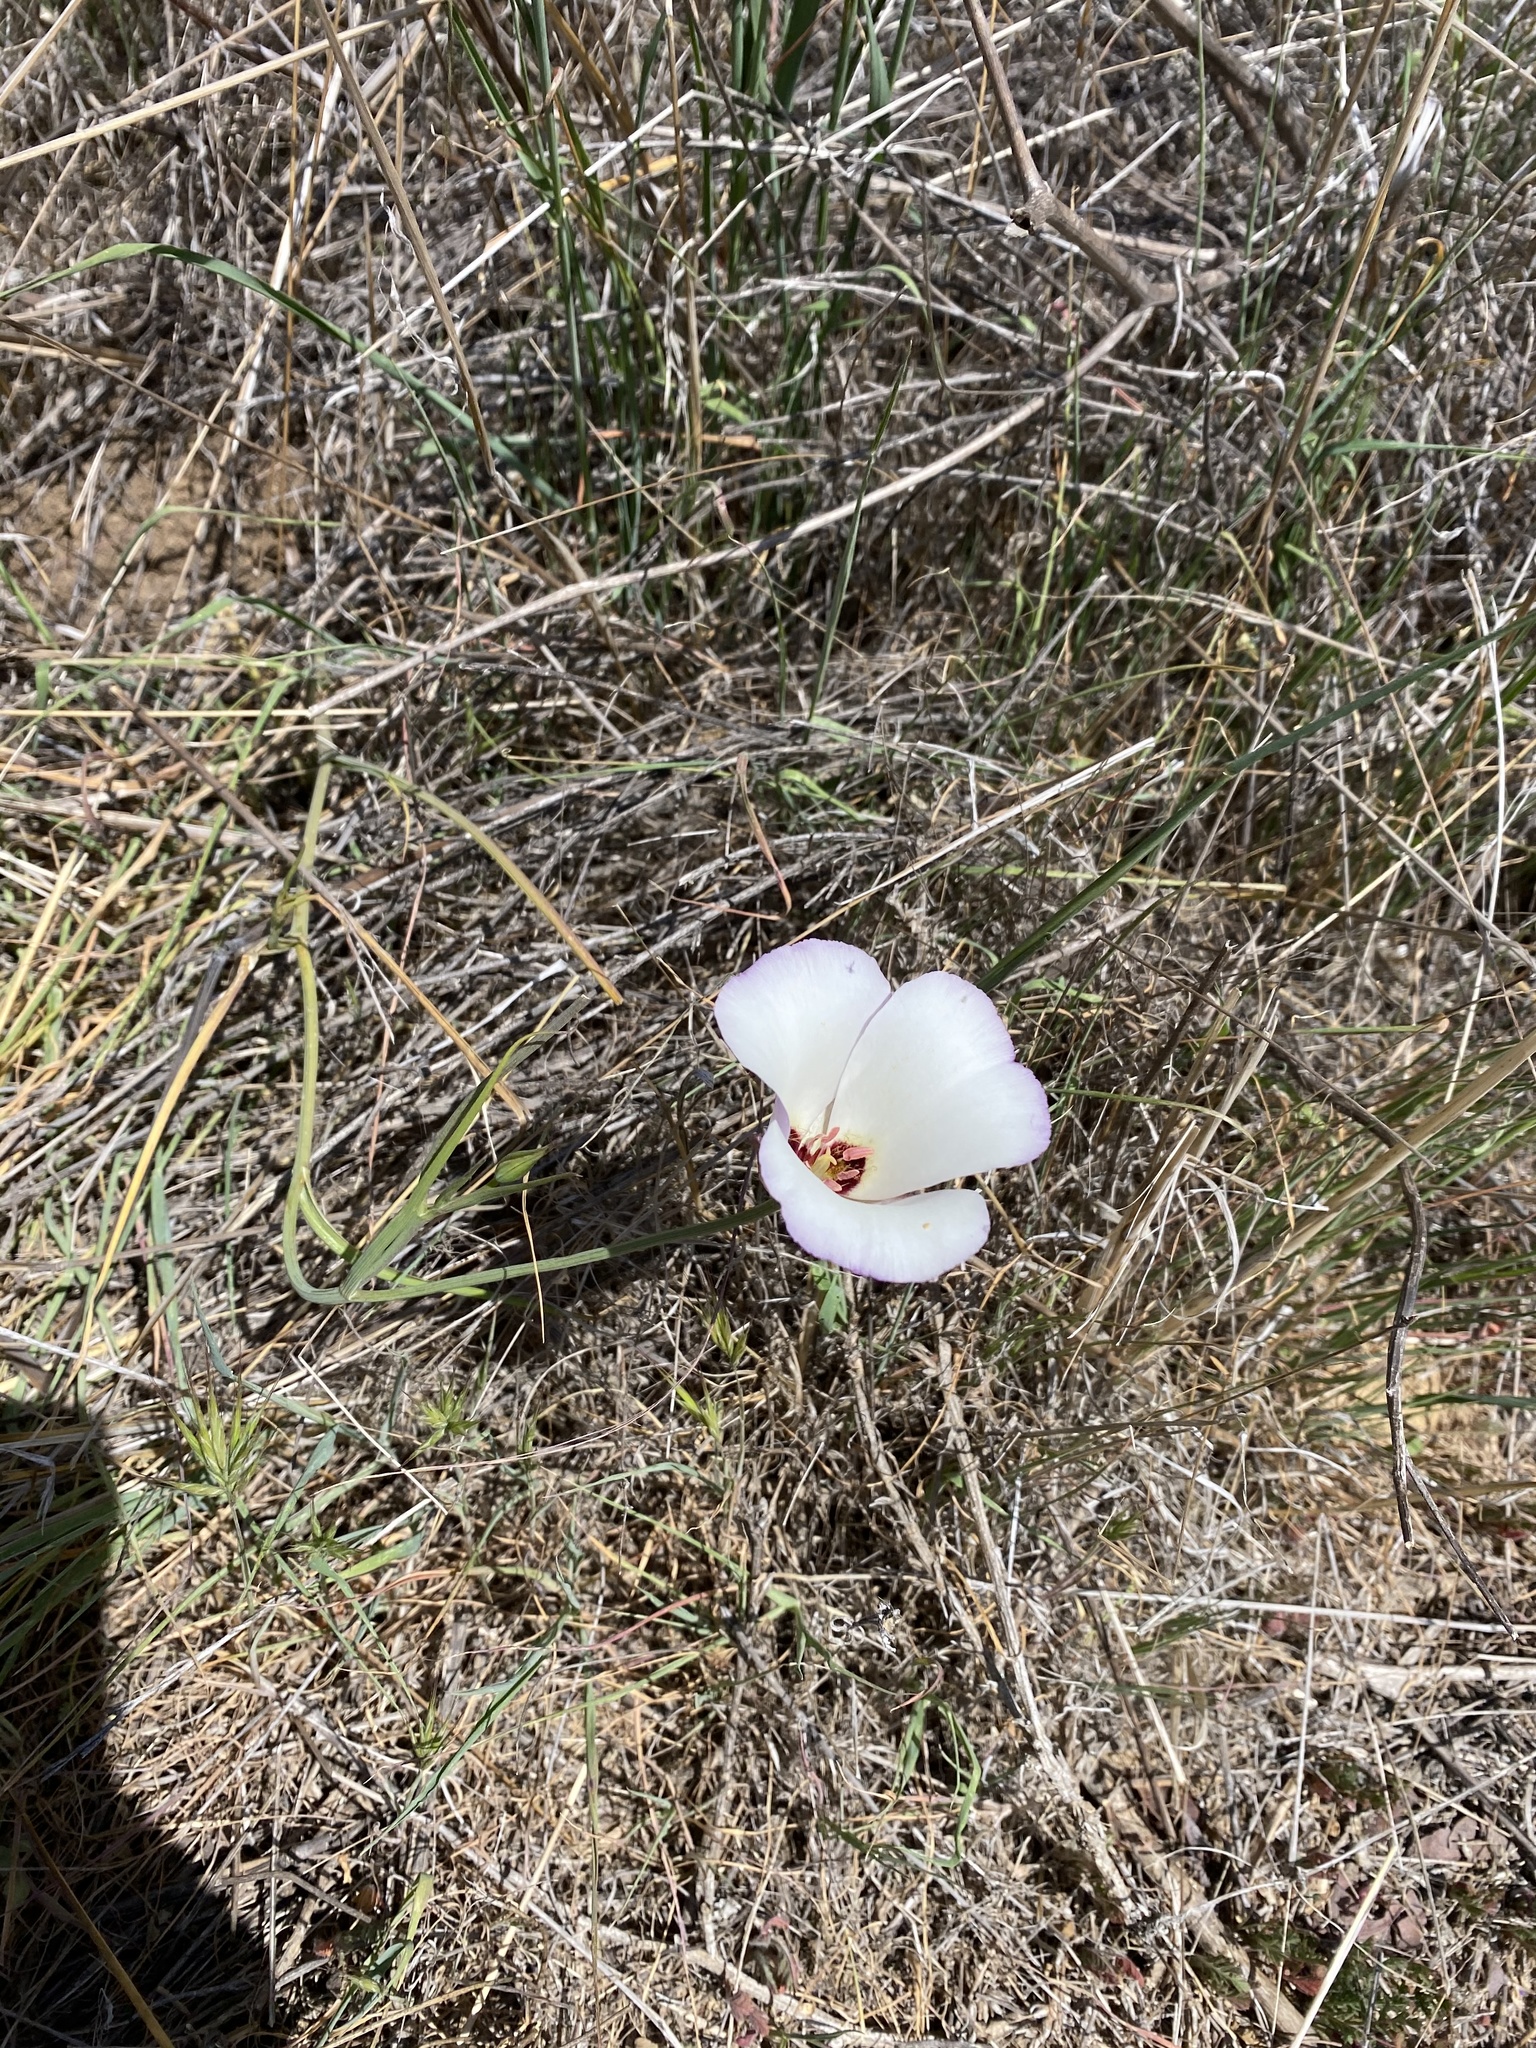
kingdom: Plantae
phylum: Tracheophyta
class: Liliopsida
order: Liliales
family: Liliaceae
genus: Calochortus
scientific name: Calochortus catalinae
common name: Catalina mariposa-lily
